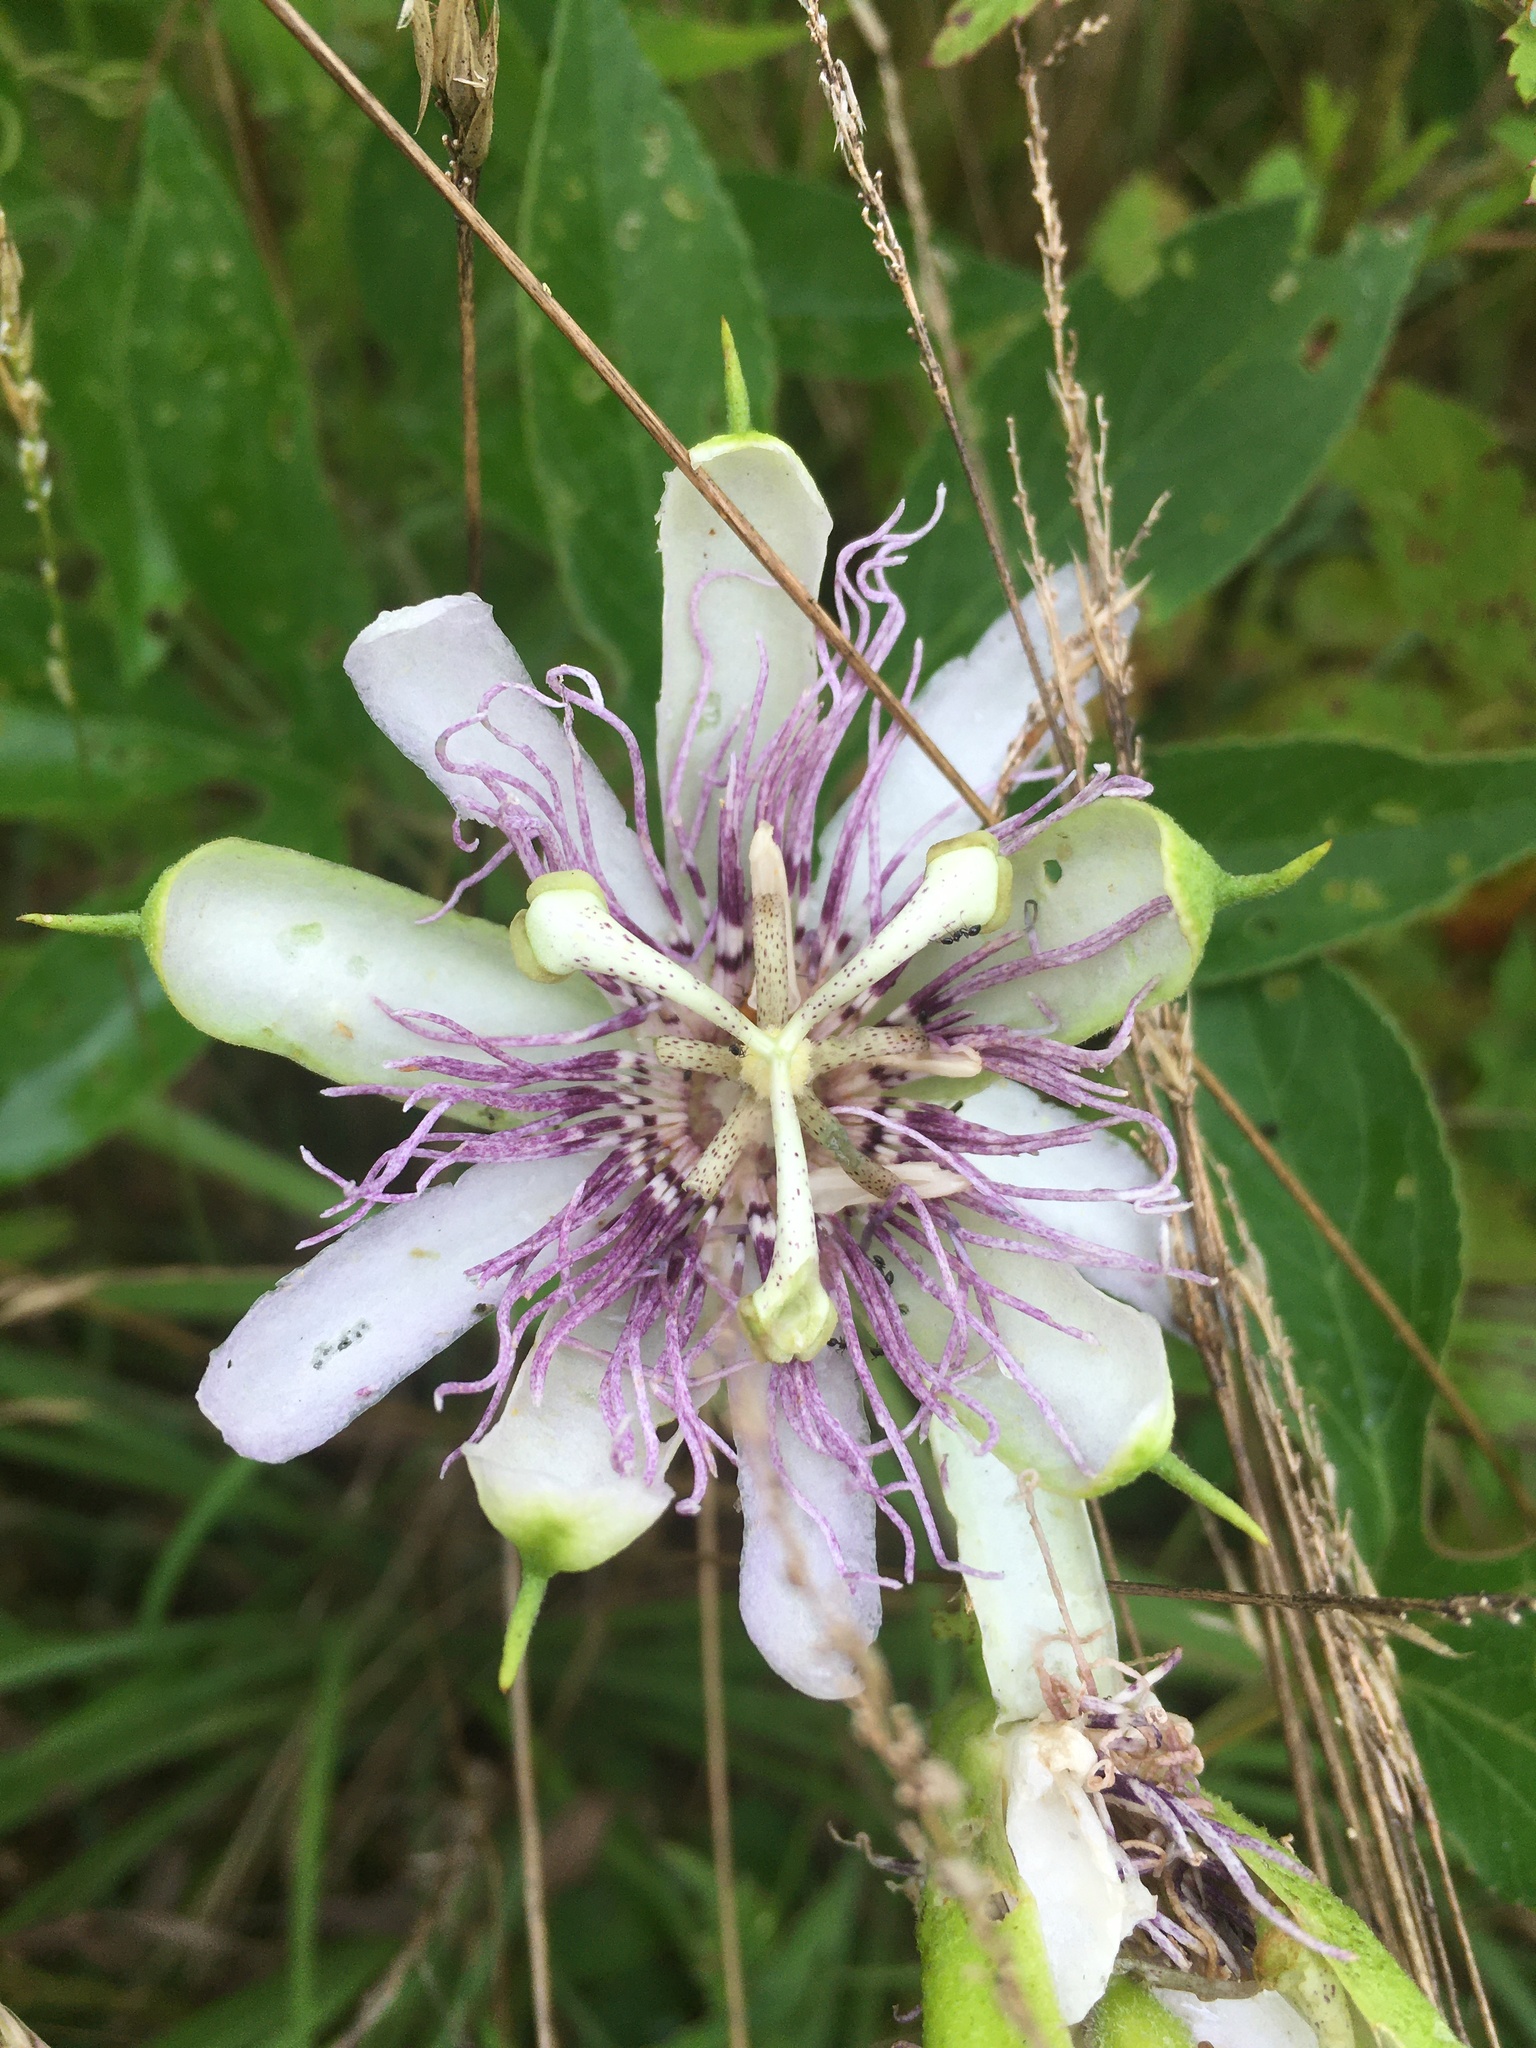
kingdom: Plantae
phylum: Tracheophyta
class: Magnoliopsida
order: Malpighiales
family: Passifloraceae
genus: Passiflora
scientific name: Passiflora incarnata
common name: Apricot-vine
